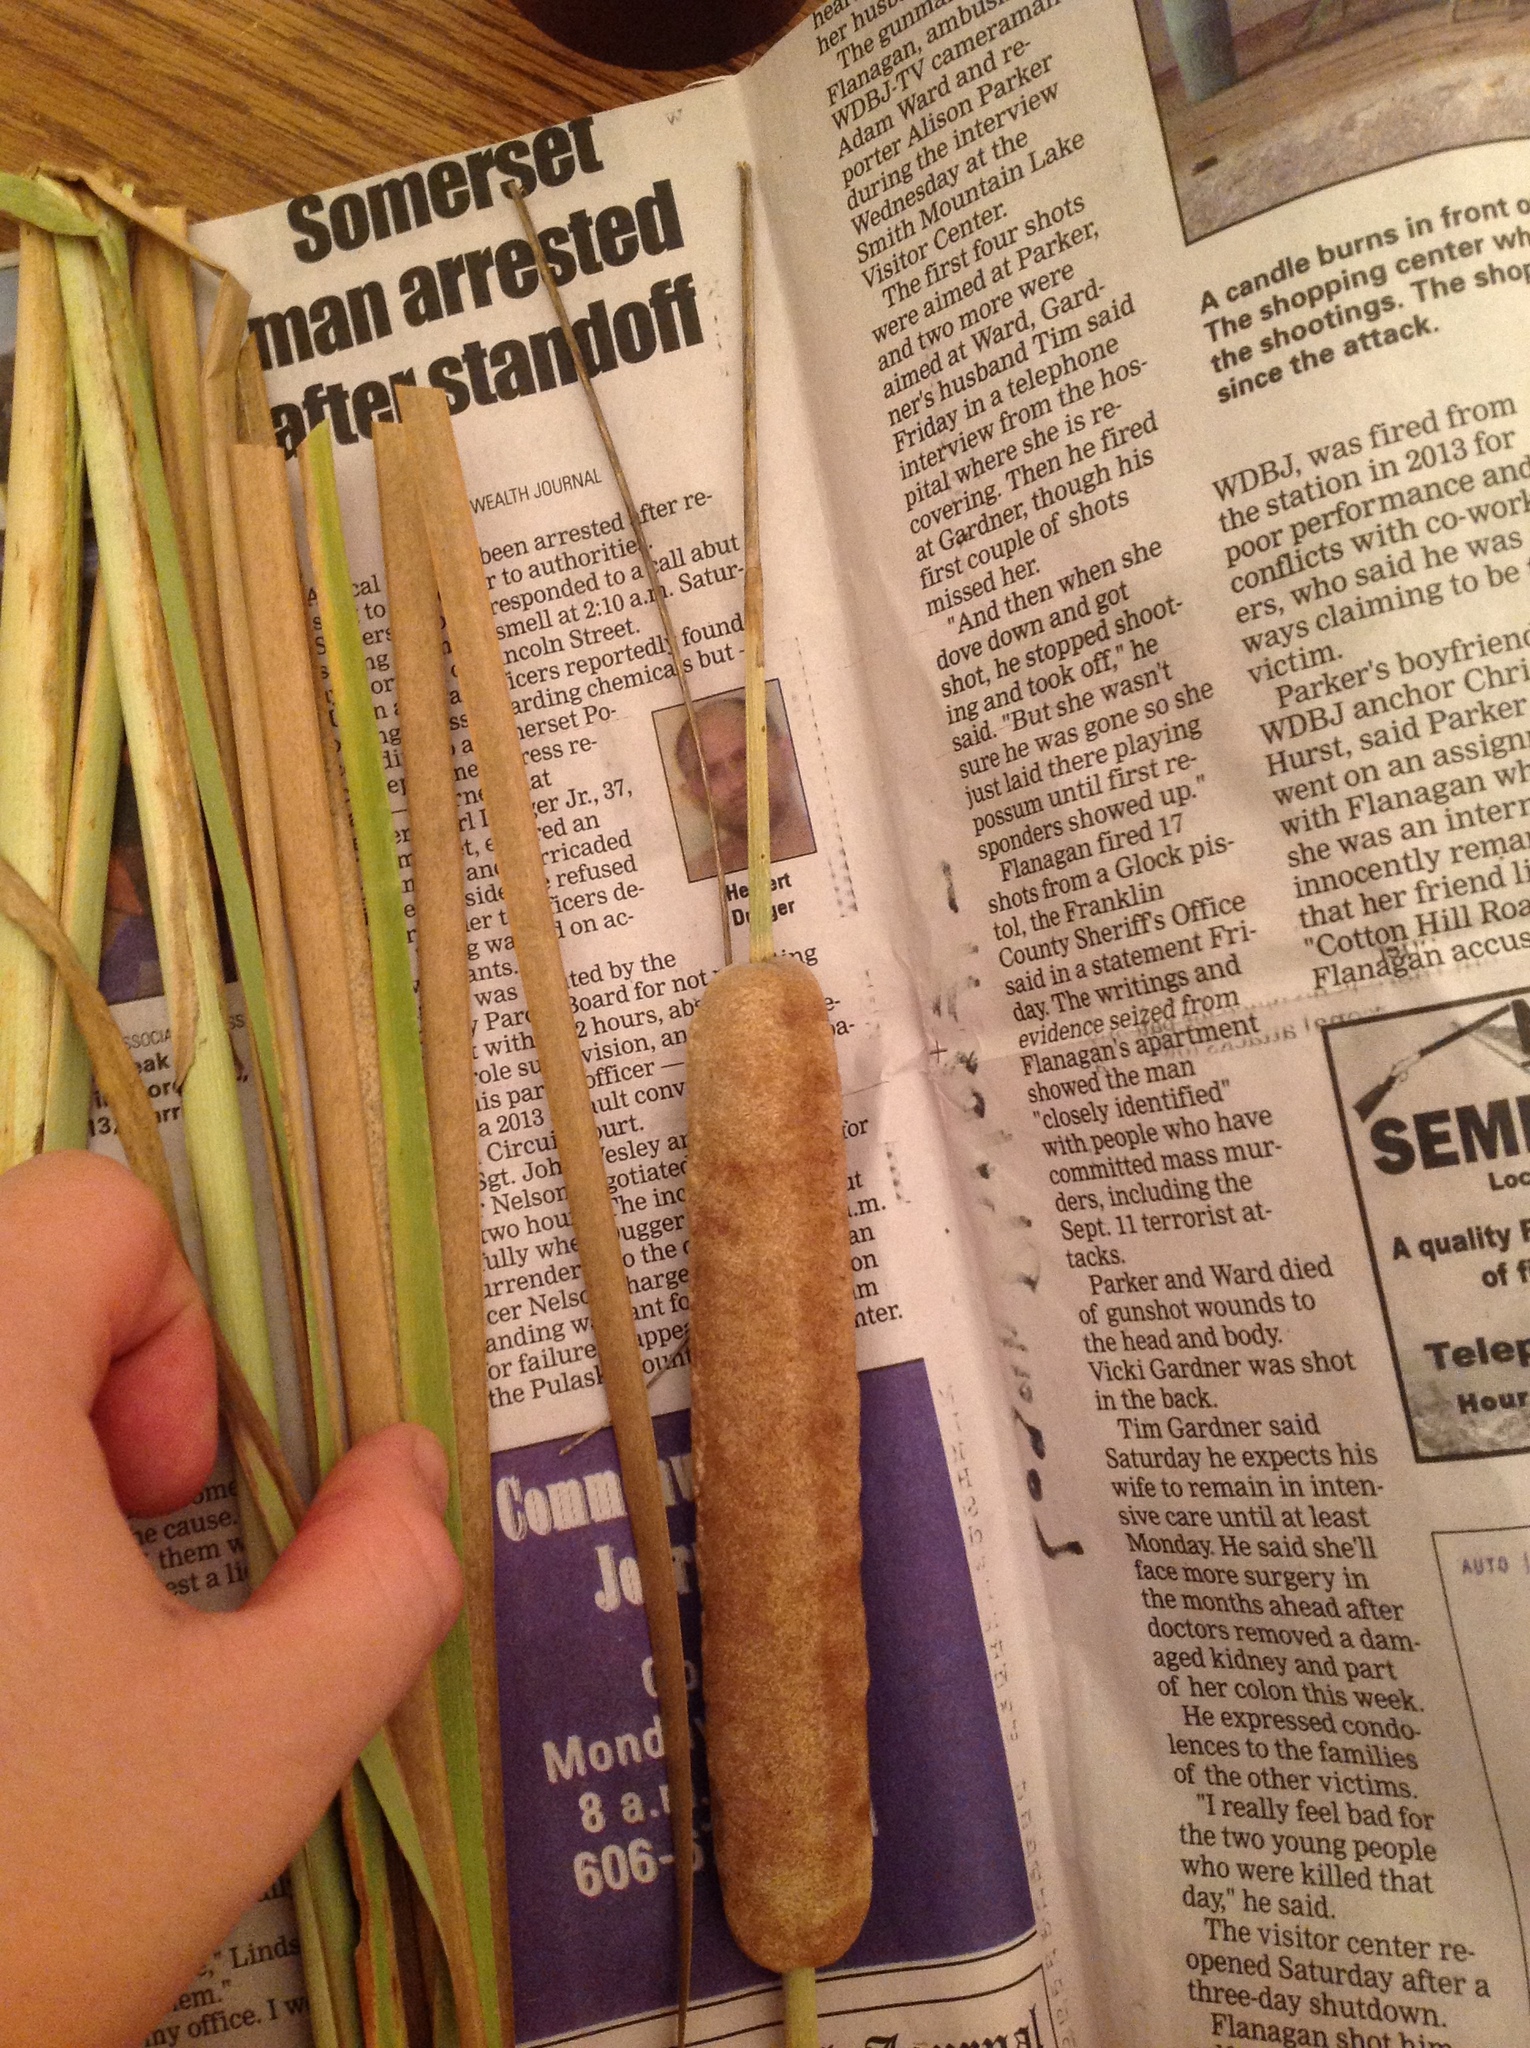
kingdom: Plantae
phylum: Tracheophyta
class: Liliopsida
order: Poales
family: Typhaceae
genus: Typha
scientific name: Typha angustifolia
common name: Lesser bulrush
